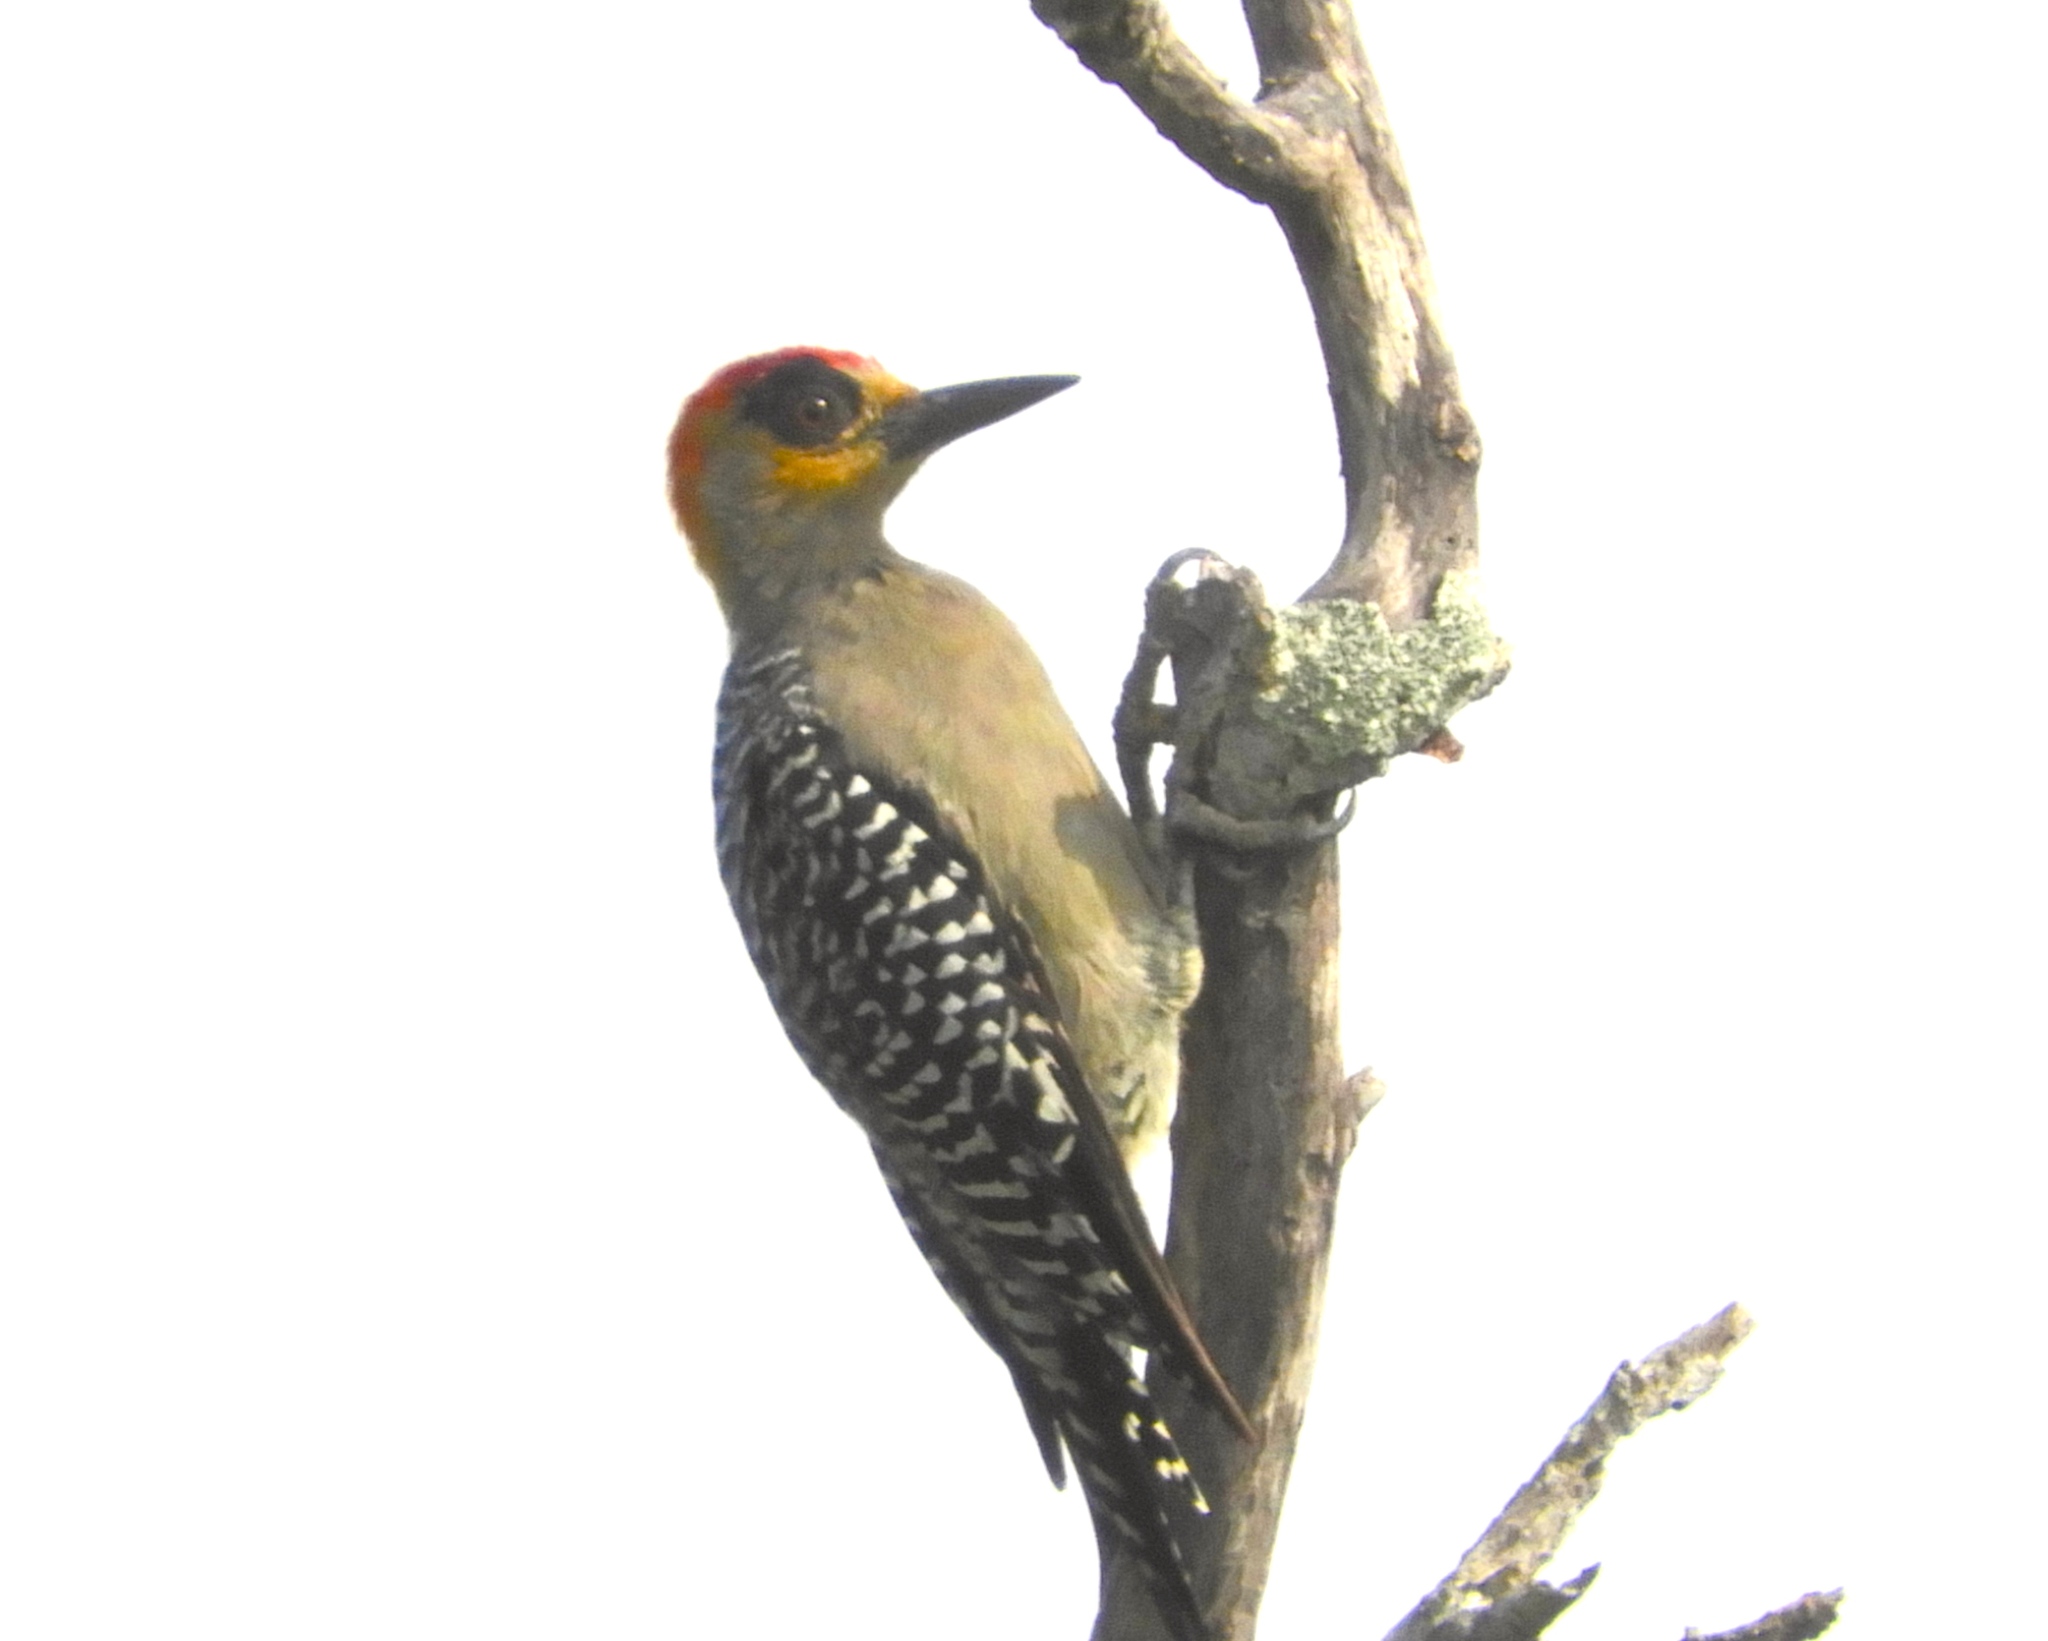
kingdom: Animalia
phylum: Chordata
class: Aves
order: Piciformes
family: Picidae
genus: Melanerpes
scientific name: Melanerpes chrysogenys
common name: Golden-cheeked woodpecker
